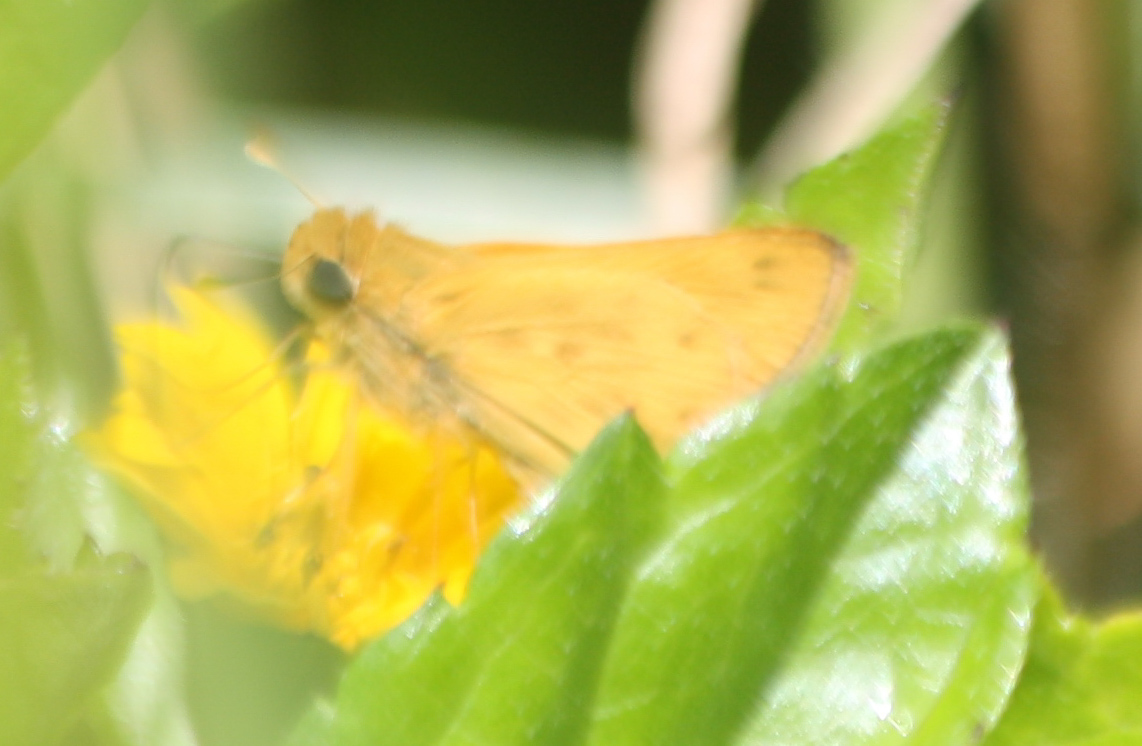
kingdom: Animalia
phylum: Arthropoda
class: Insecta
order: Lepidoptera
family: Hesperiidae
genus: Hylephila
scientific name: Hylephila phyleus
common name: Fiery skipper
